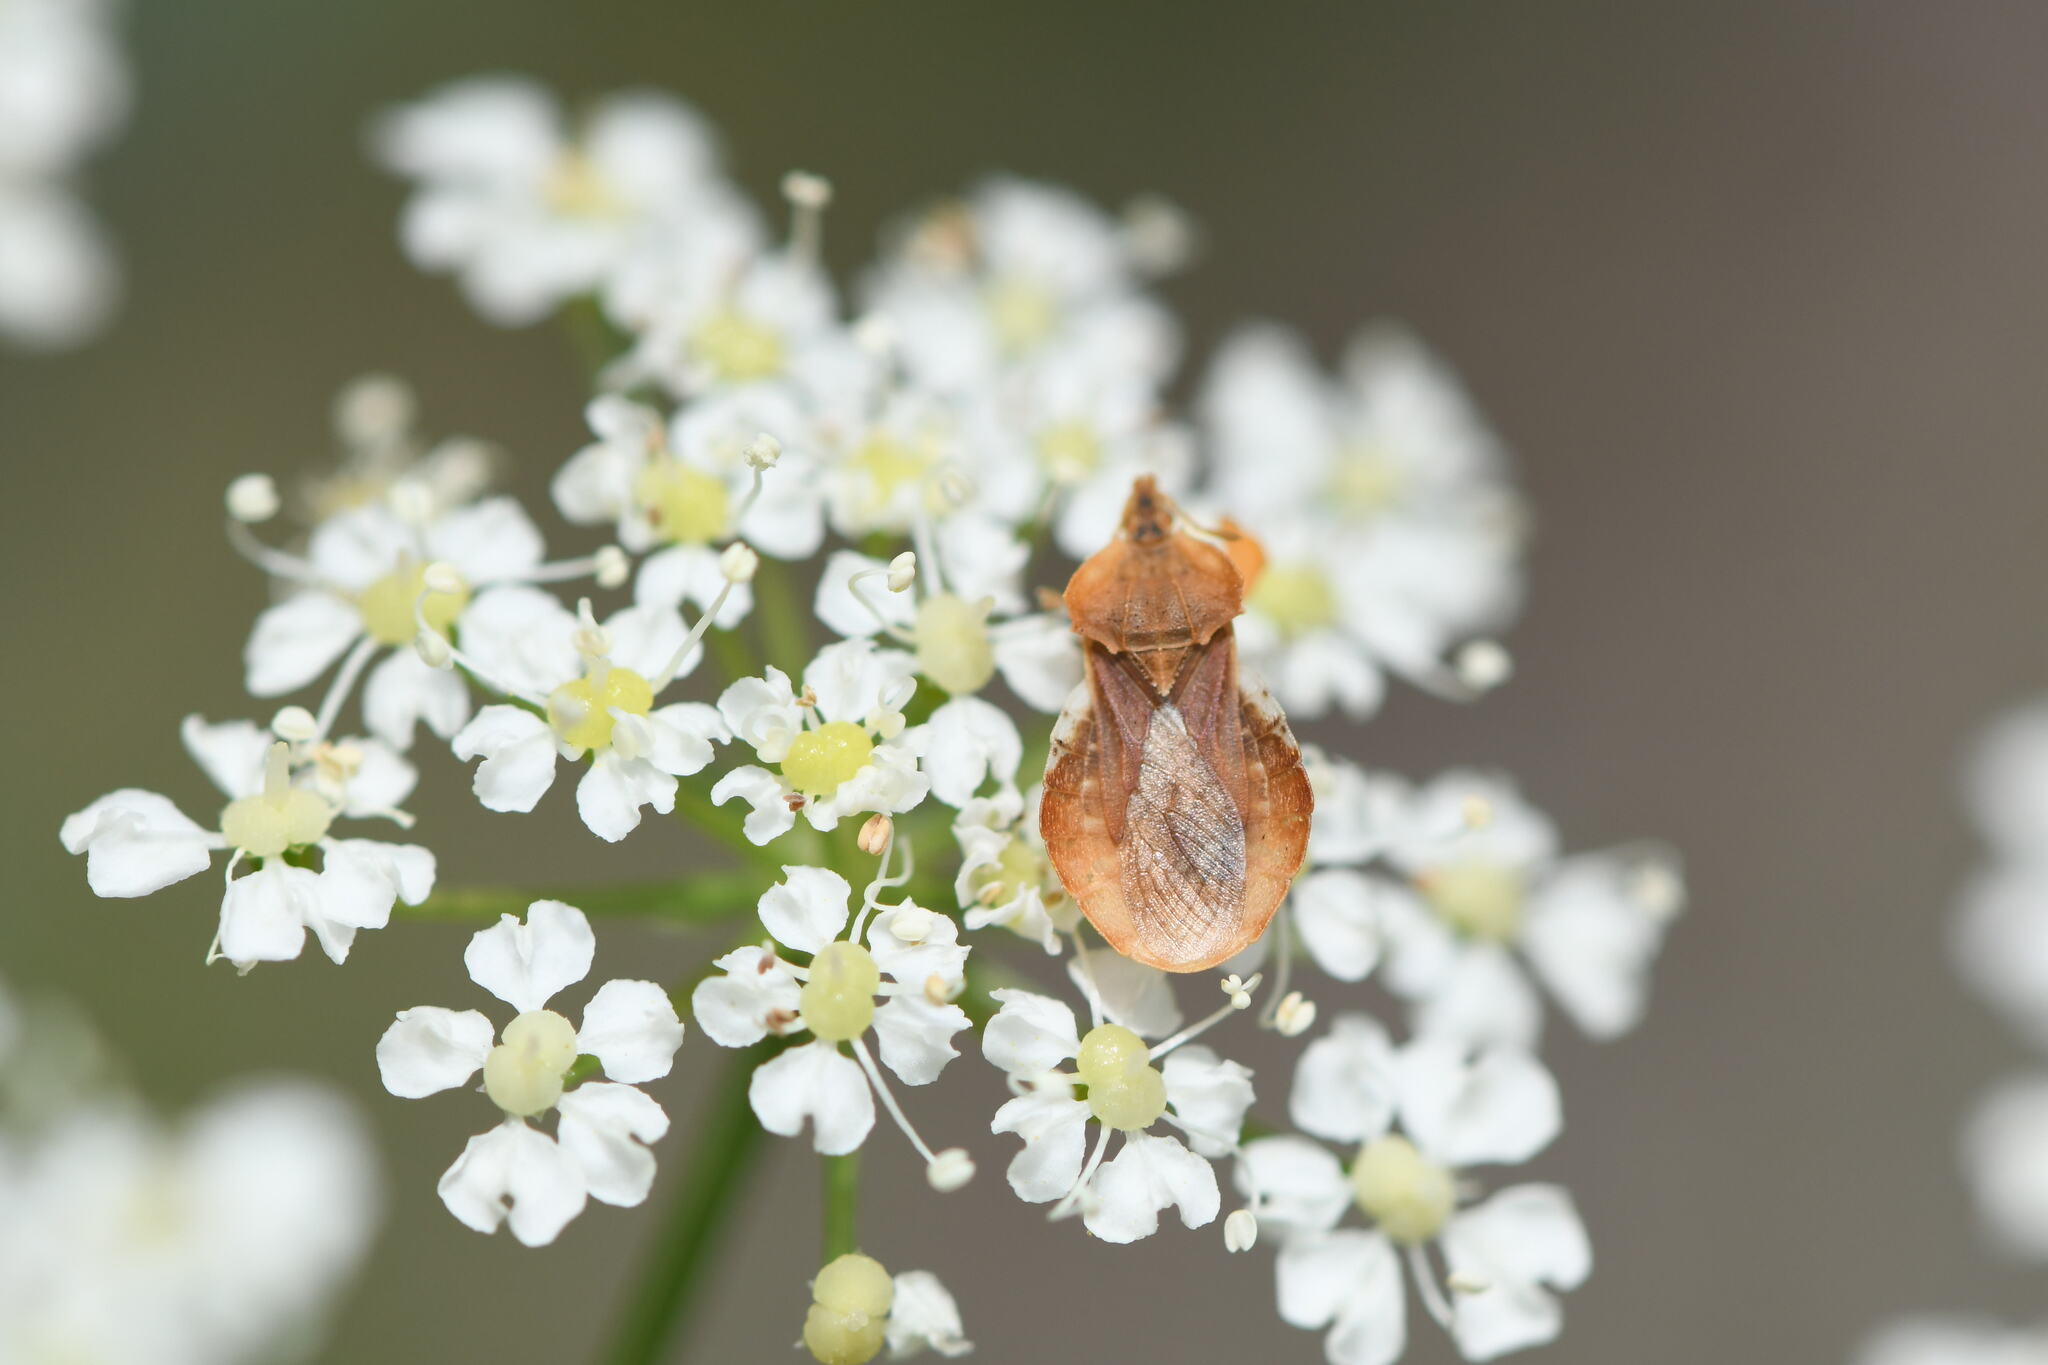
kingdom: Animalia
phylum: Arthropoda
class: Insecta
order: Hemiptera
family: Reduviidae
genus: Phymata
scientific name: Phymata crassipes
